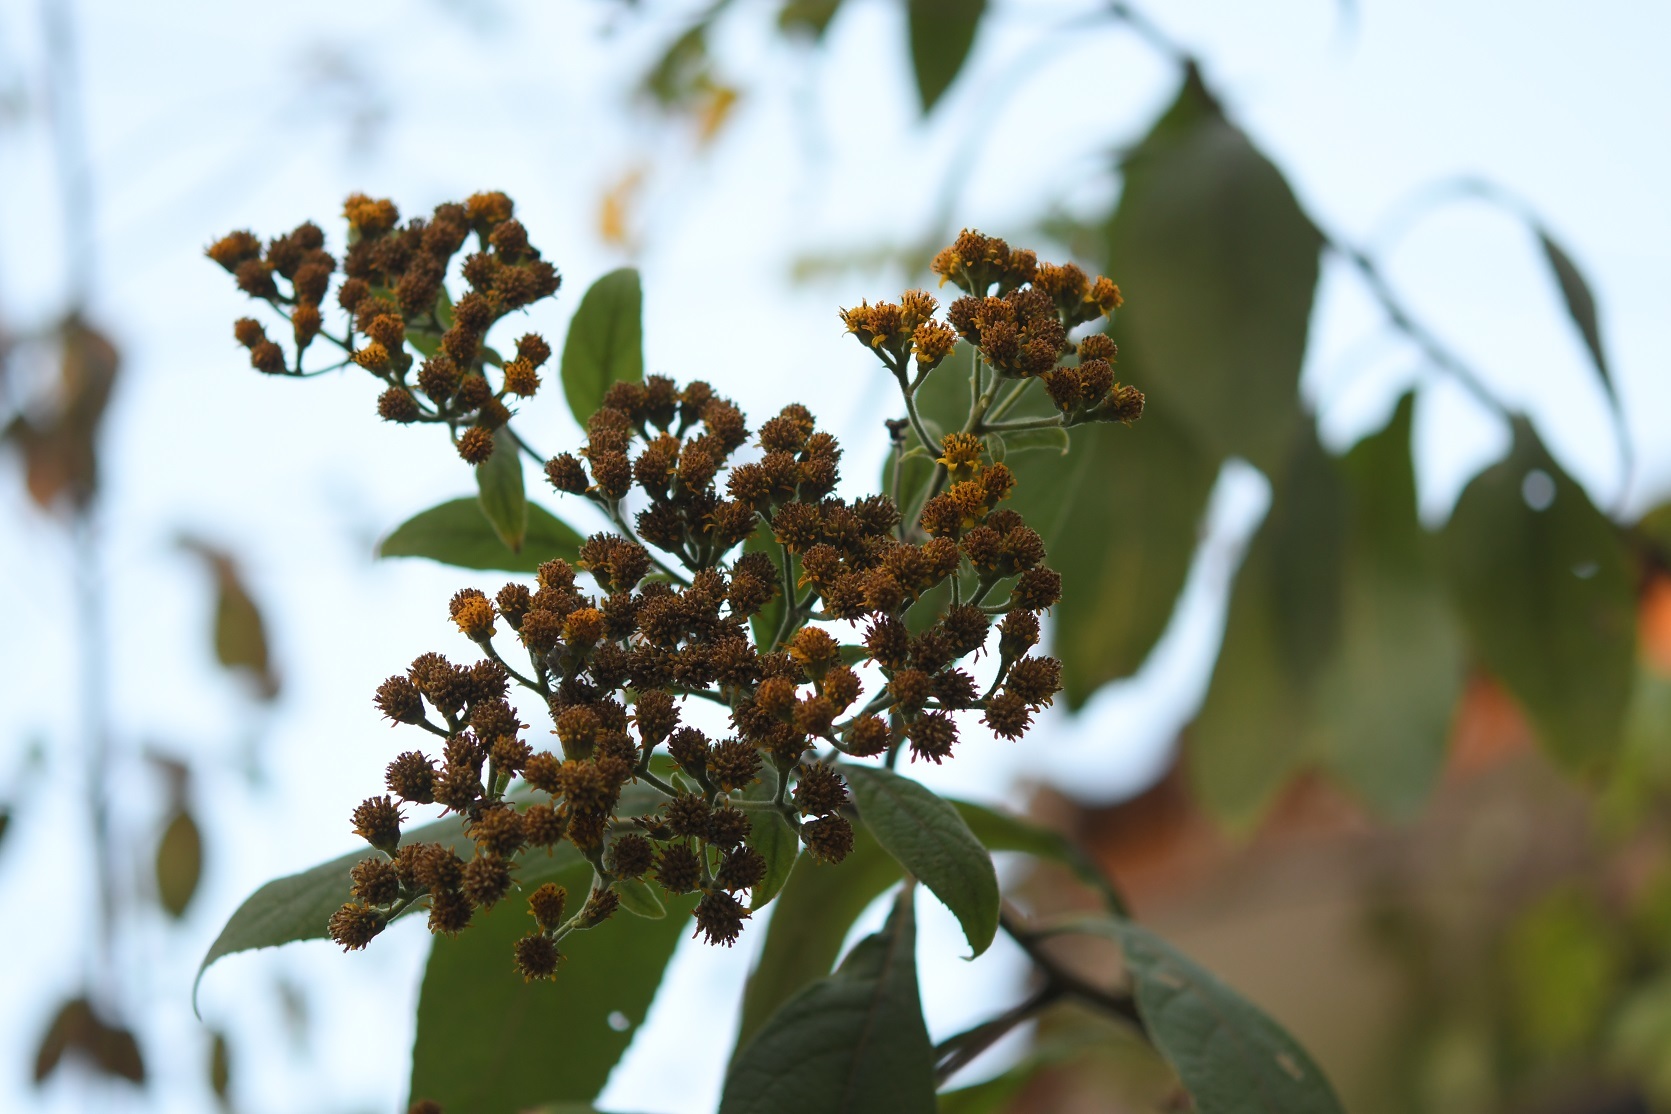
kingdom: Plantae
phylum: Tracheophyta
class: Magnoliopsida
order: Asterales
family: Asteraceae
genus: Verbesina
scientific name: Verbesina pleistocephala
